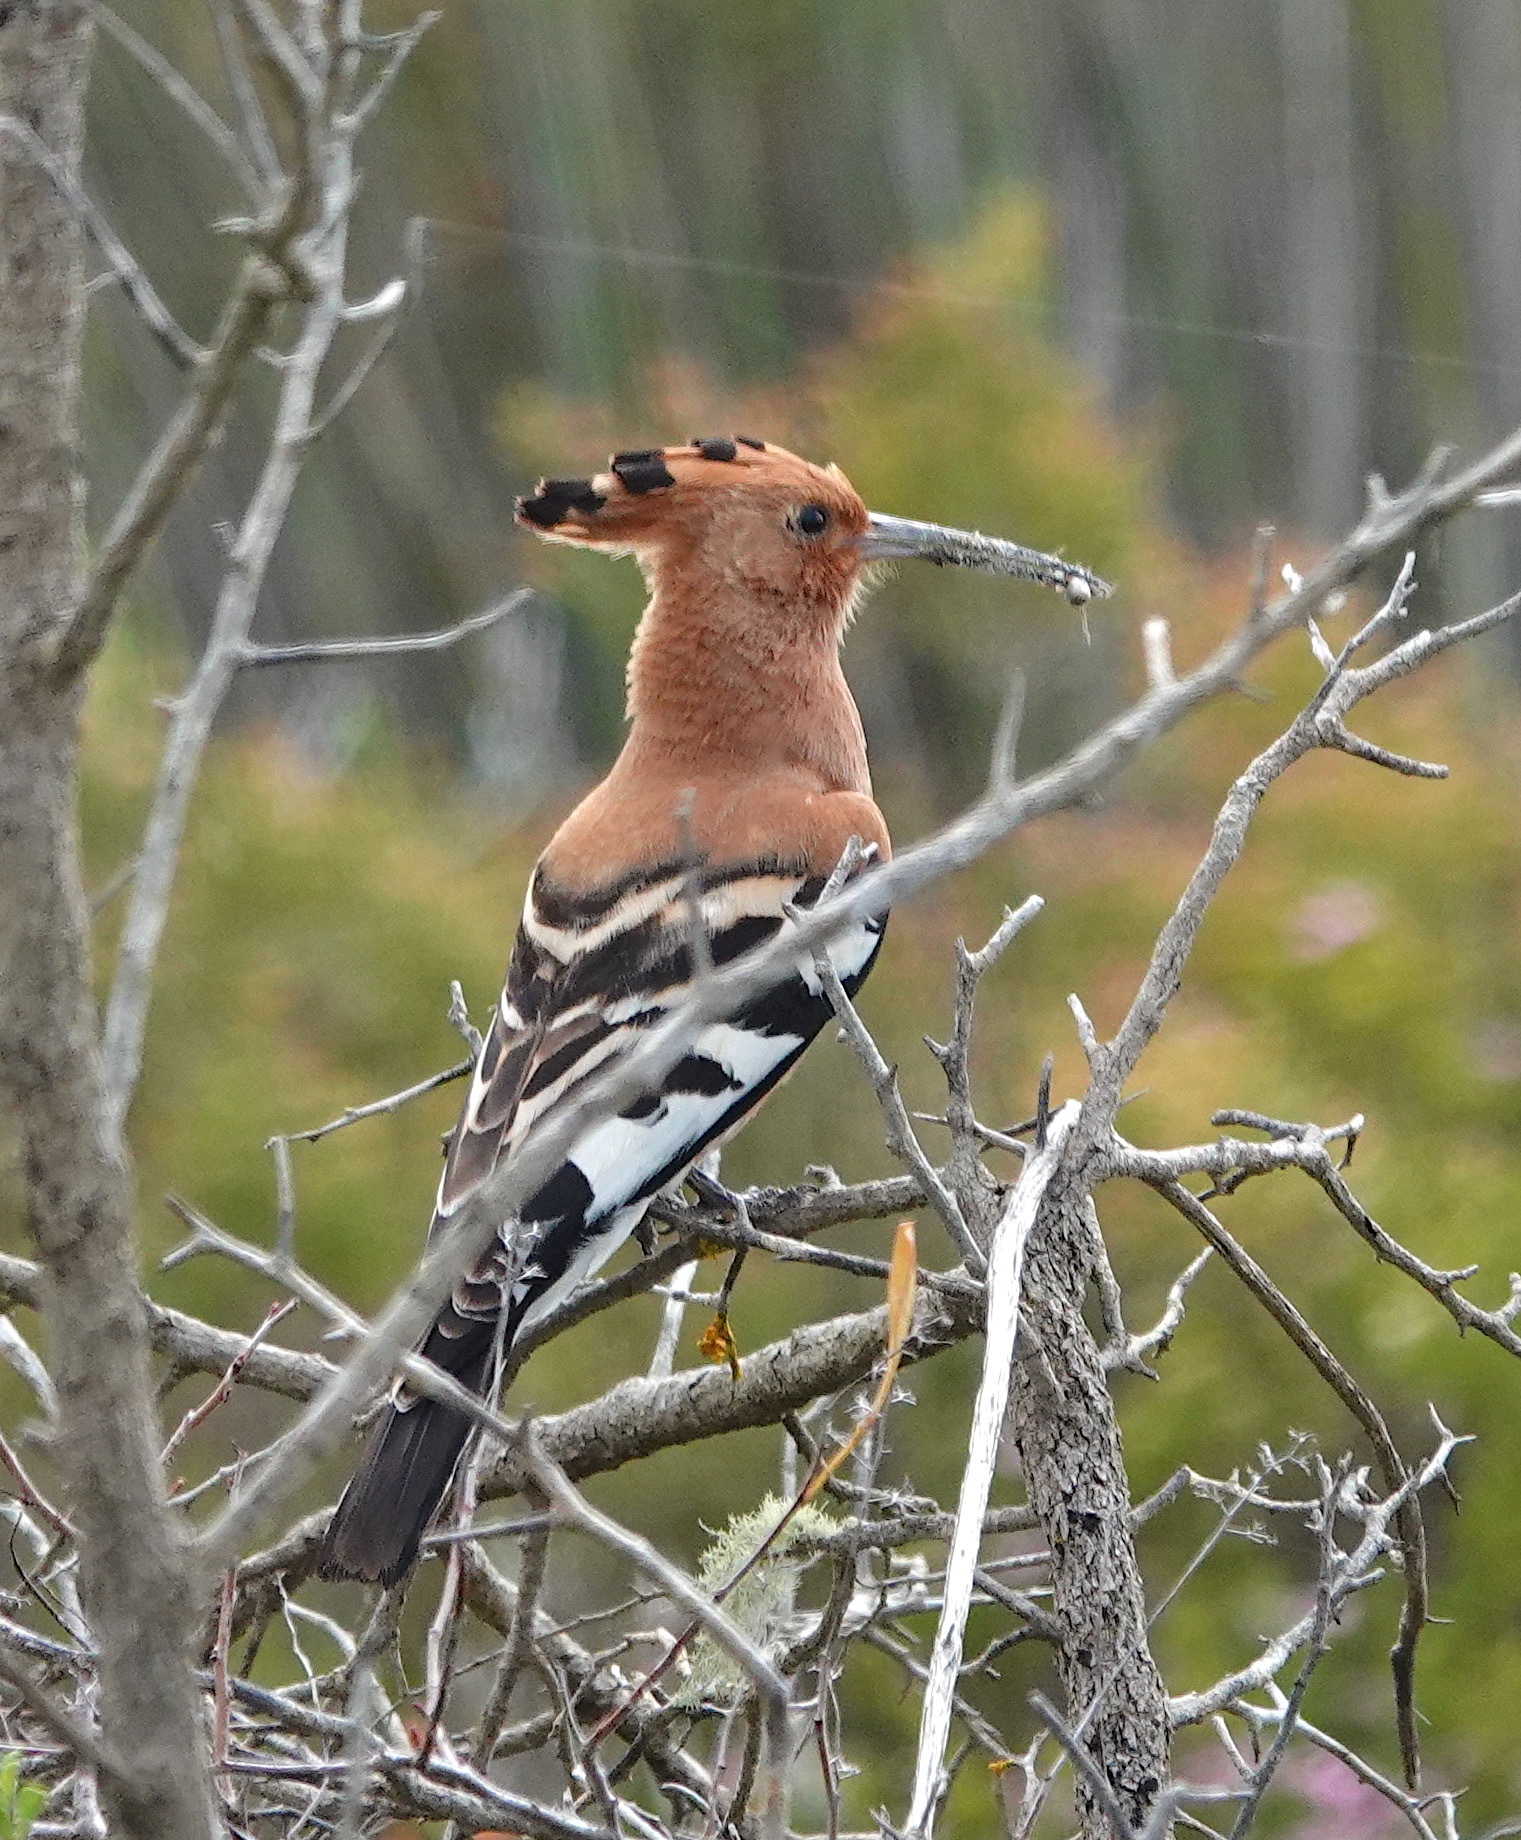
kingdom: Animalia
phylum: Chordata
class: Aves
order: Bucerotiformes
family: Upupidae
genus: Upupa
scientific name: Upupa africana
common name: African hoopoe
